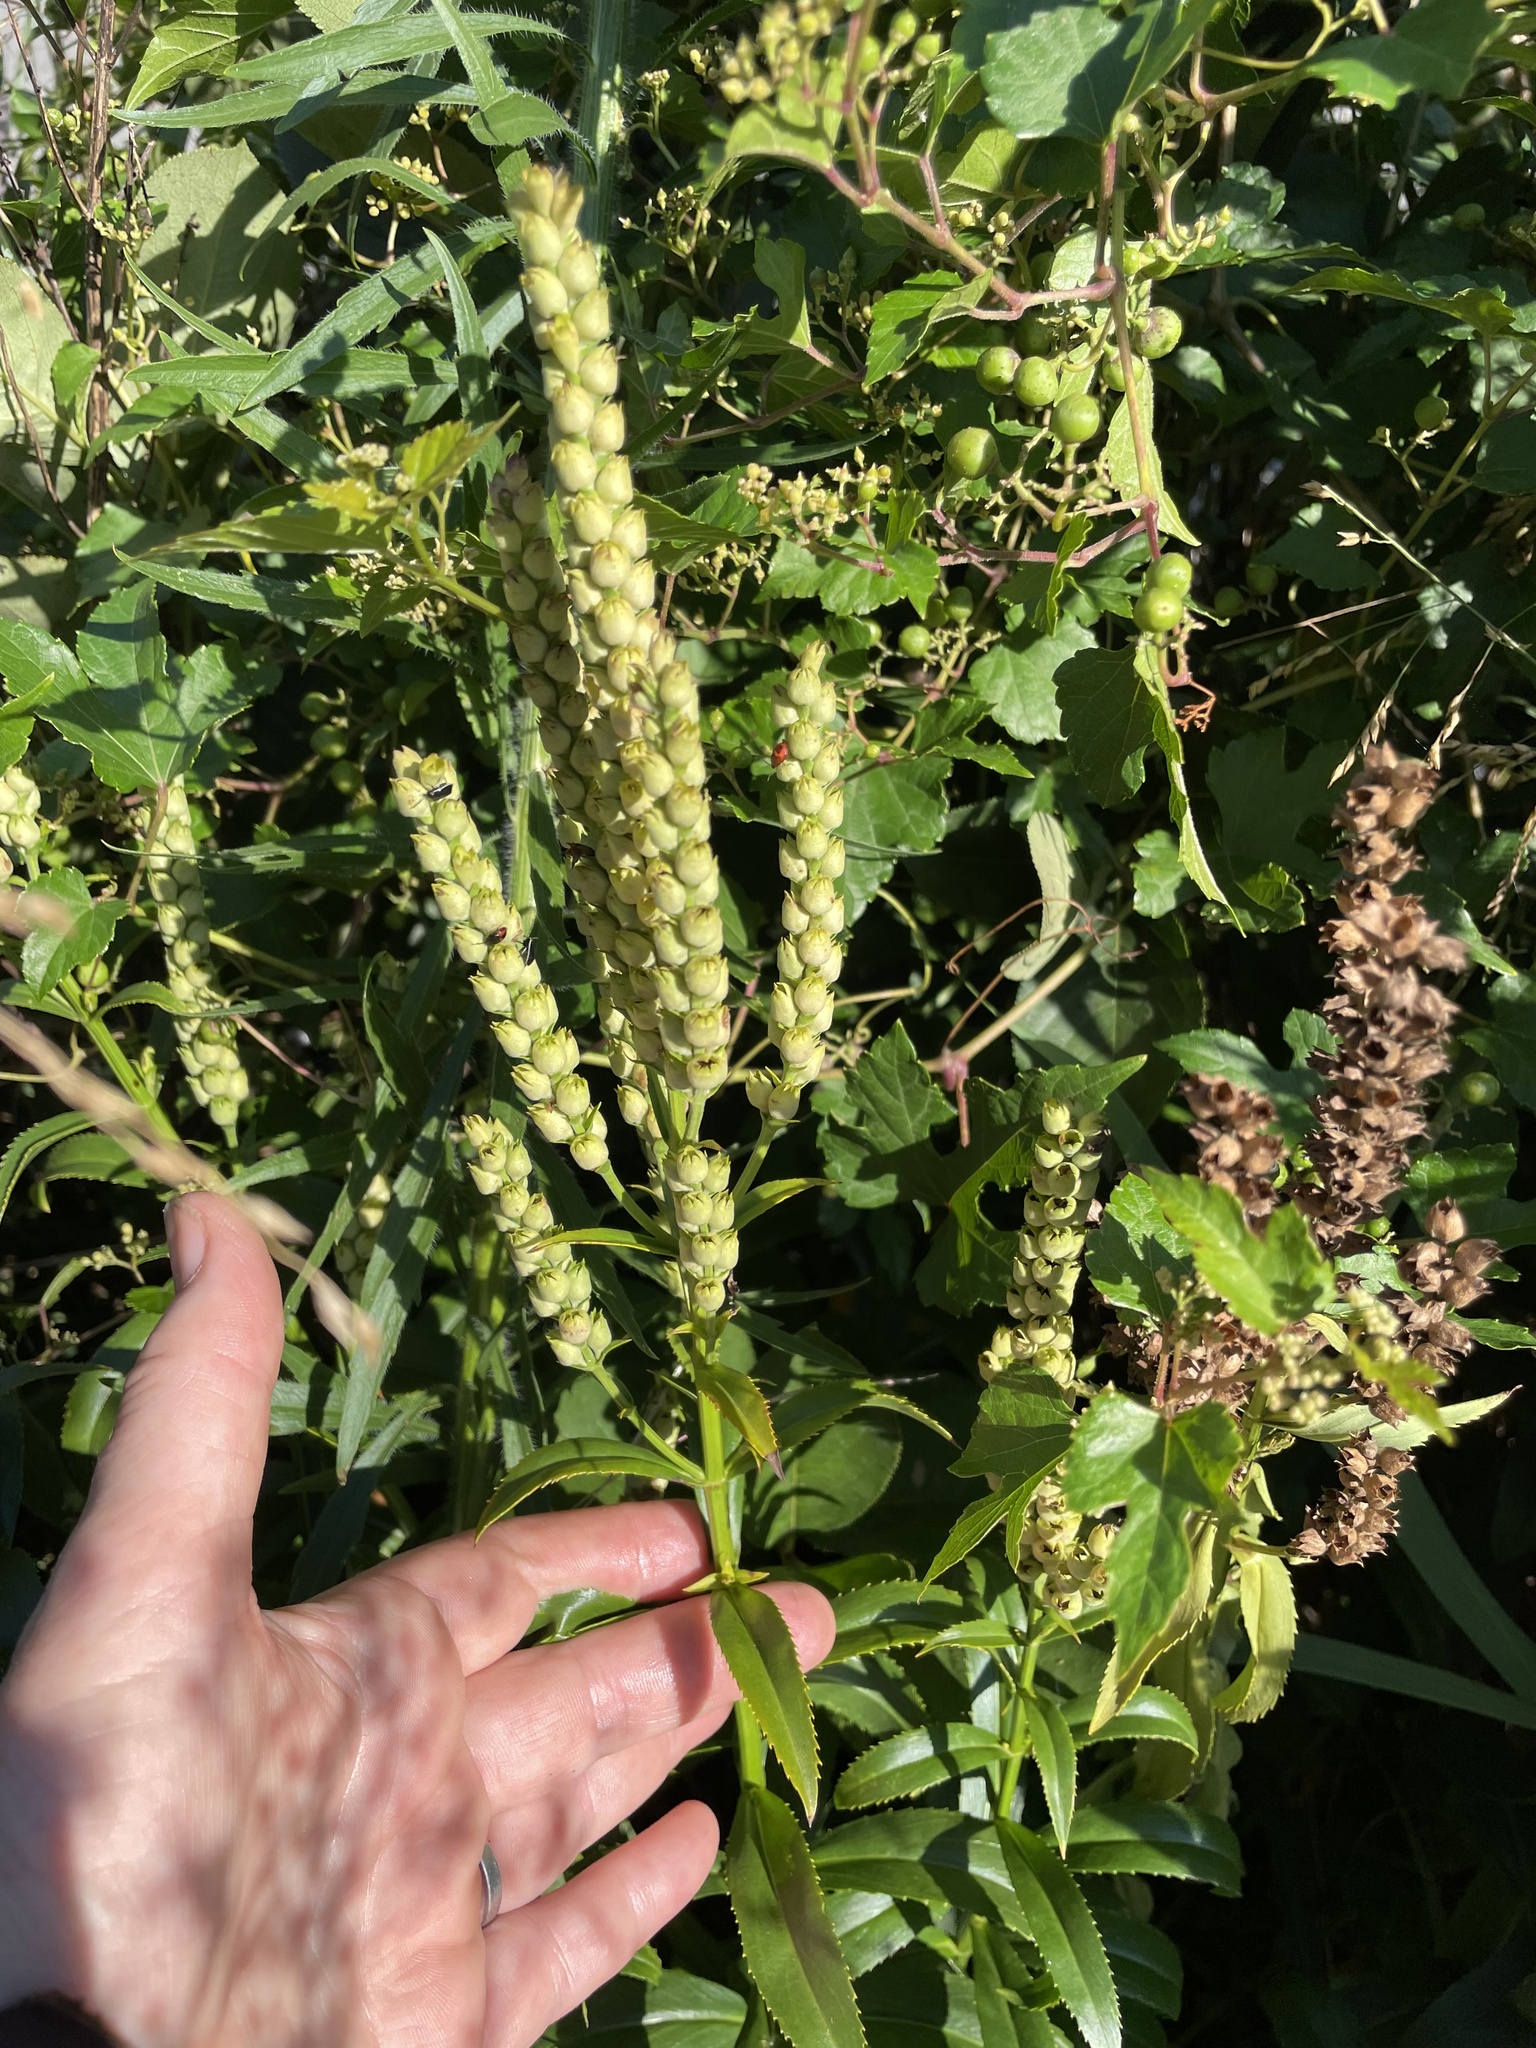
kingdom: Plantae
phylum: Tracheophyta
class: Magnoliopsida
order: Lamiales
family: Lamiaceae
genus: Physostegia
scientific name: Physostegia virginiana
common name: Obedient-plant
